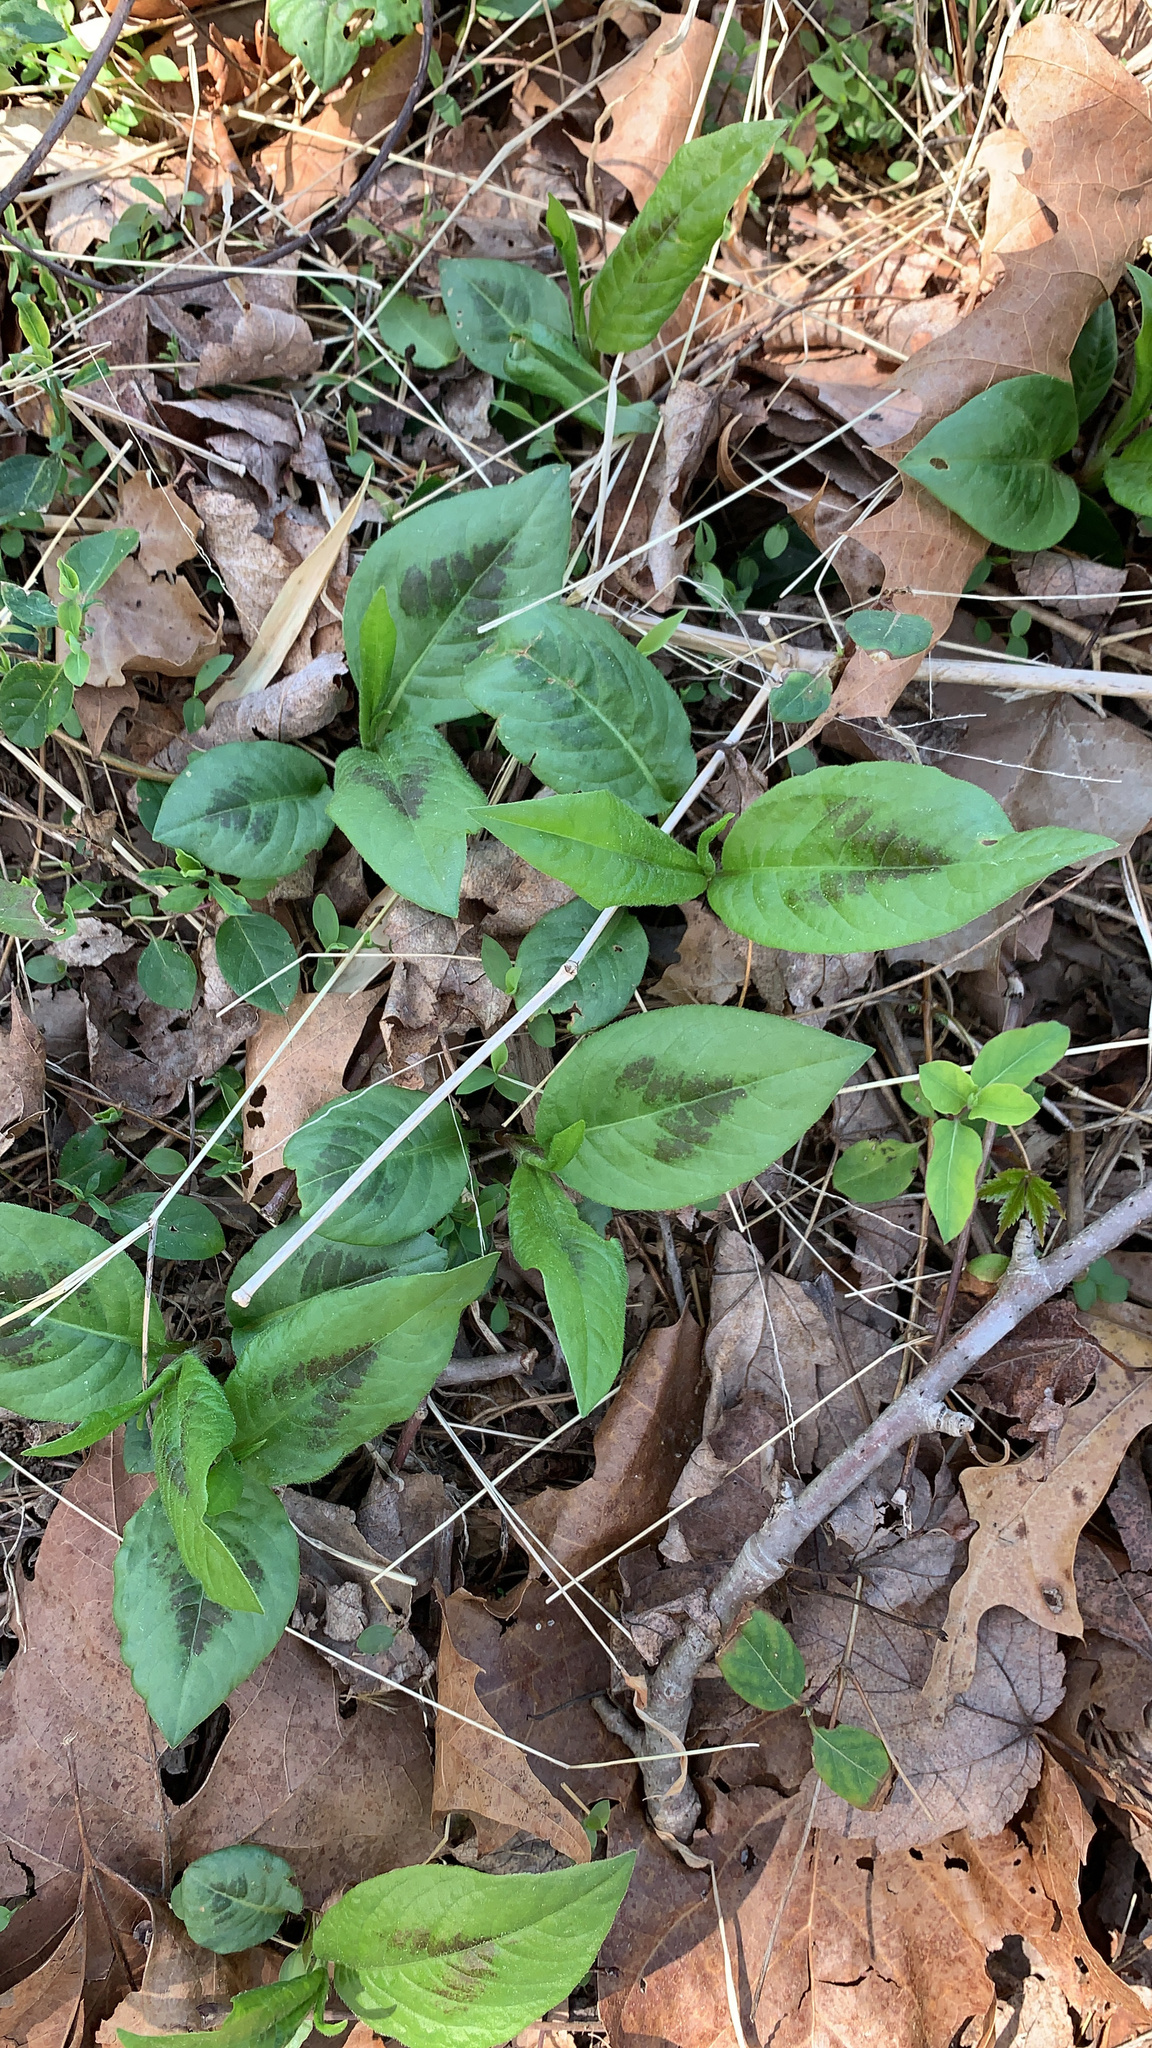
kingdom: Plantae
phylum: Tracheophyta
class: Magnoliopsida
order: Caryophyllales
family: Polygonaceae
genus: Persicaria
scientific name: Persicaria virginiana
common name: Jumpseed
